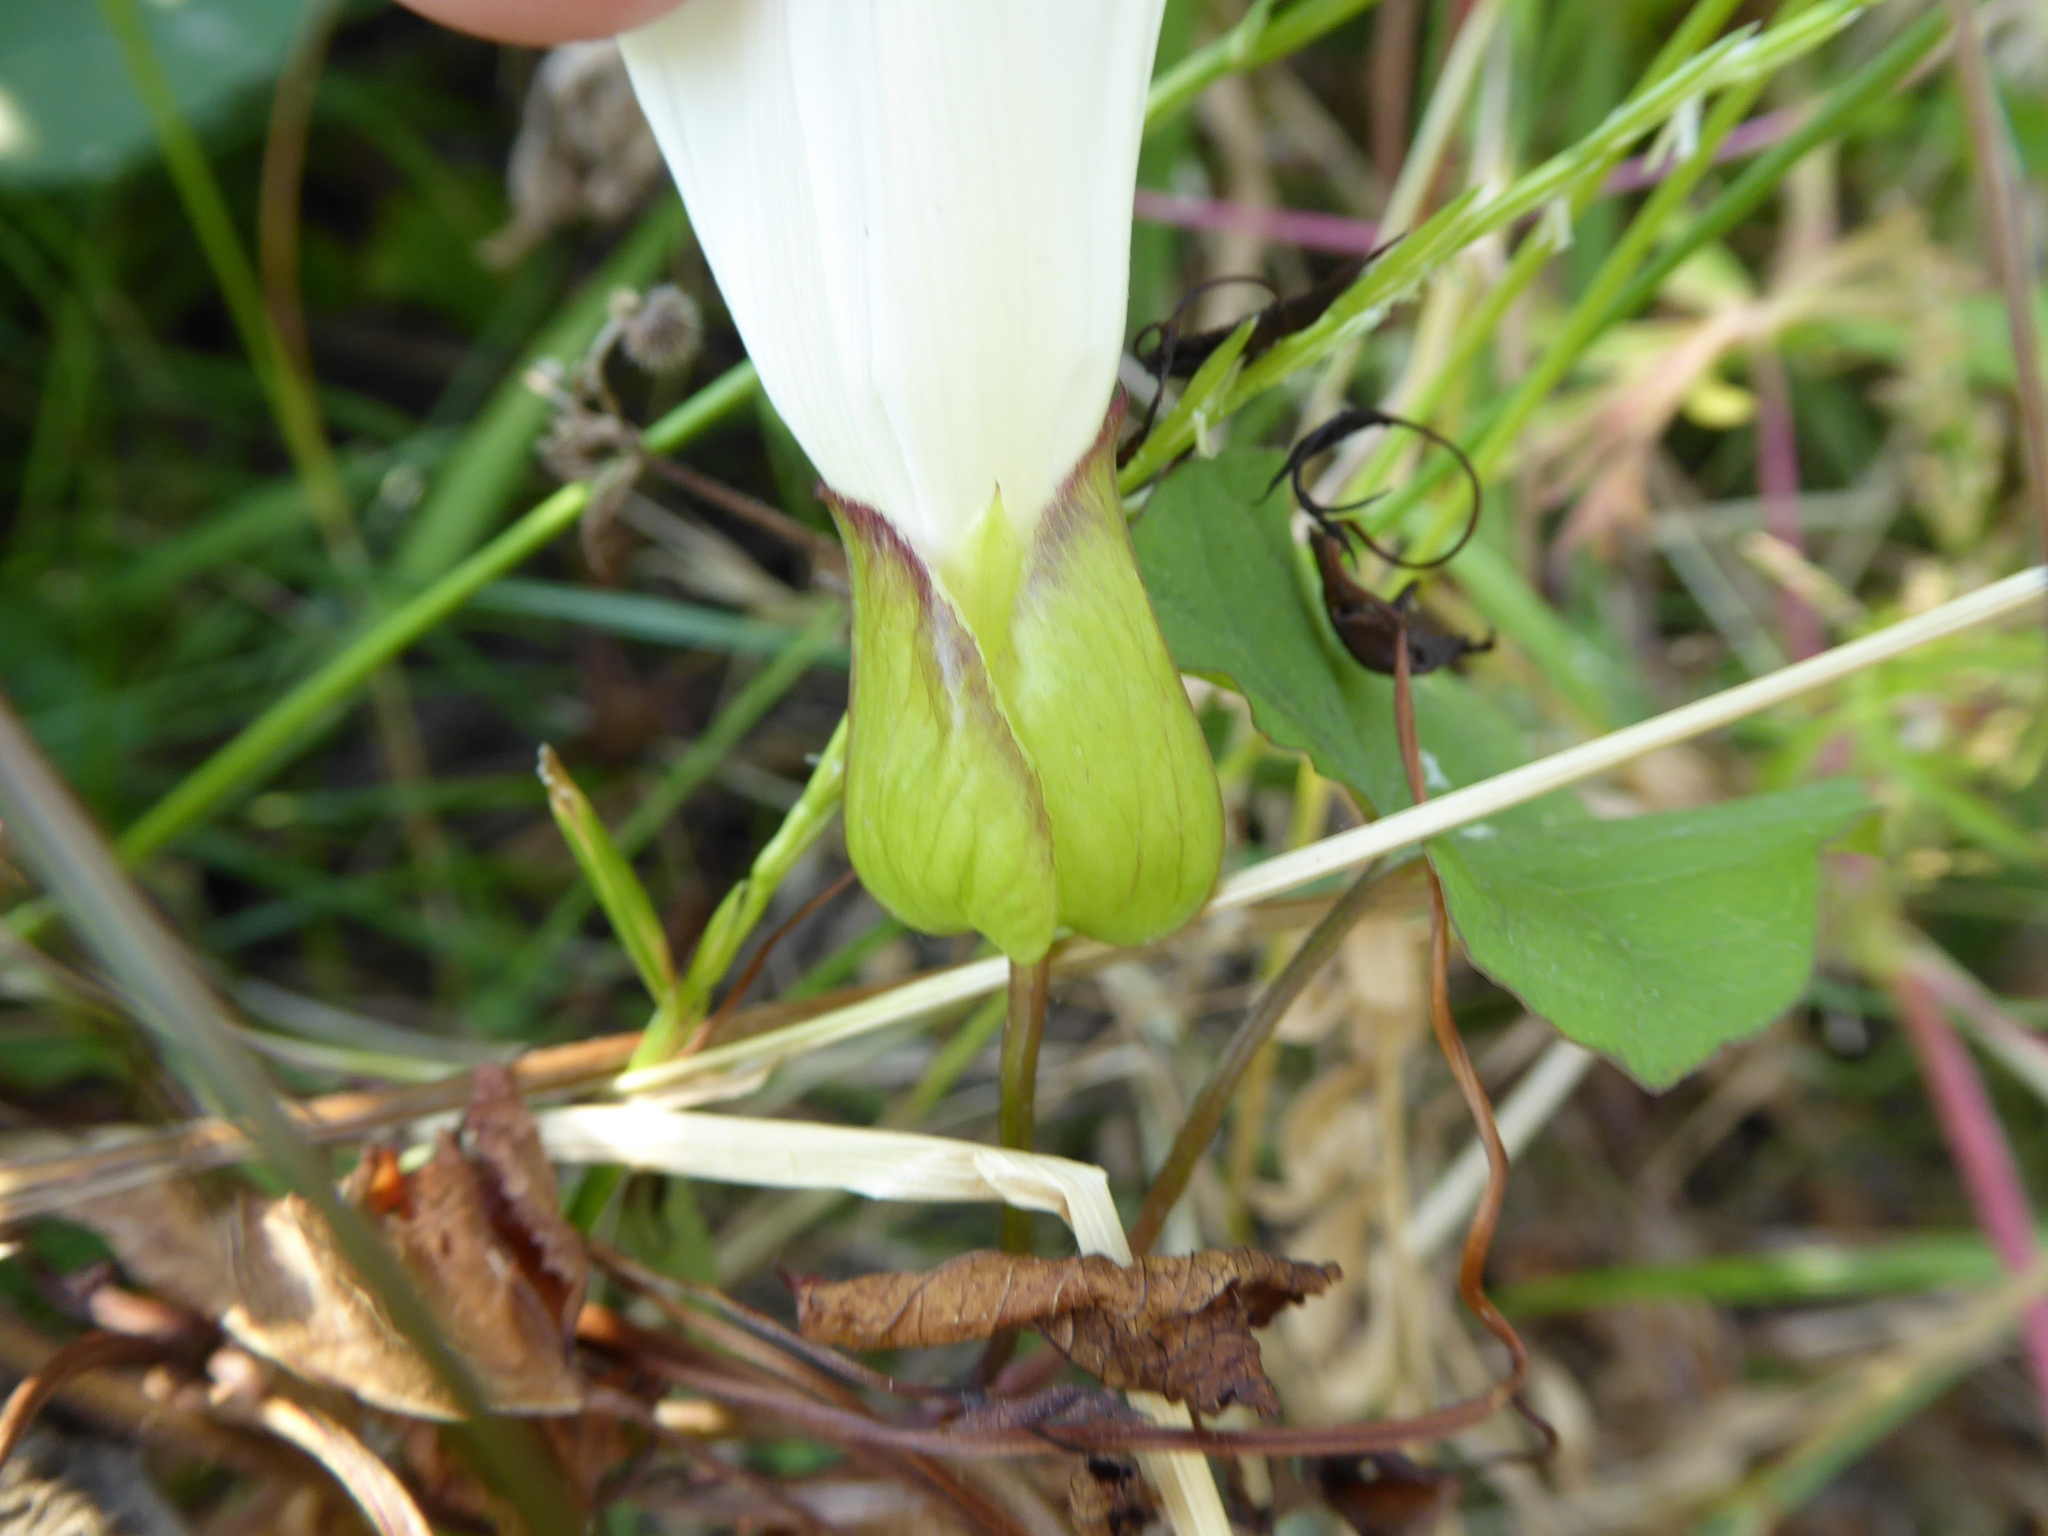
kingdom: Plantae
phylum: Tracheophyta
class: Magnoliopsida
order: Solanales
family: Convolvulaceae
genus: Calystegia
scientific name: Calystegia lucana
